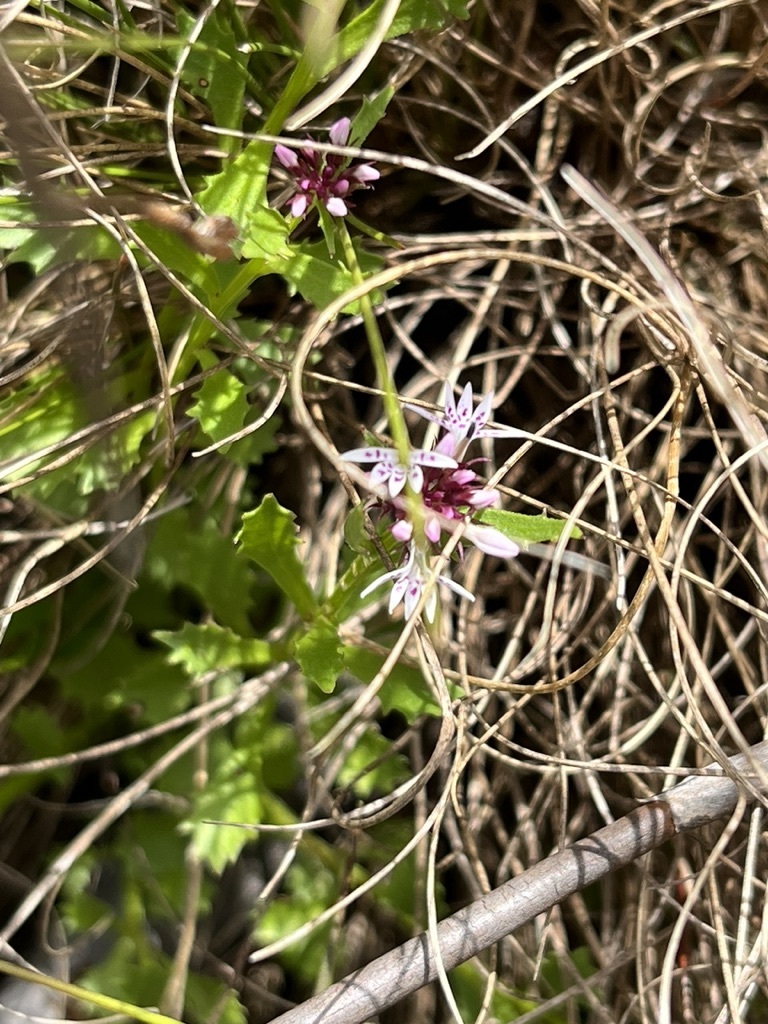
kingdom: Plantae
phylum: Tracheophyta
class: Magnoliopsida
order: Asterales
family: Campanulaceae
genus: Lobelia
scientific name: Lobelia jasionoides
